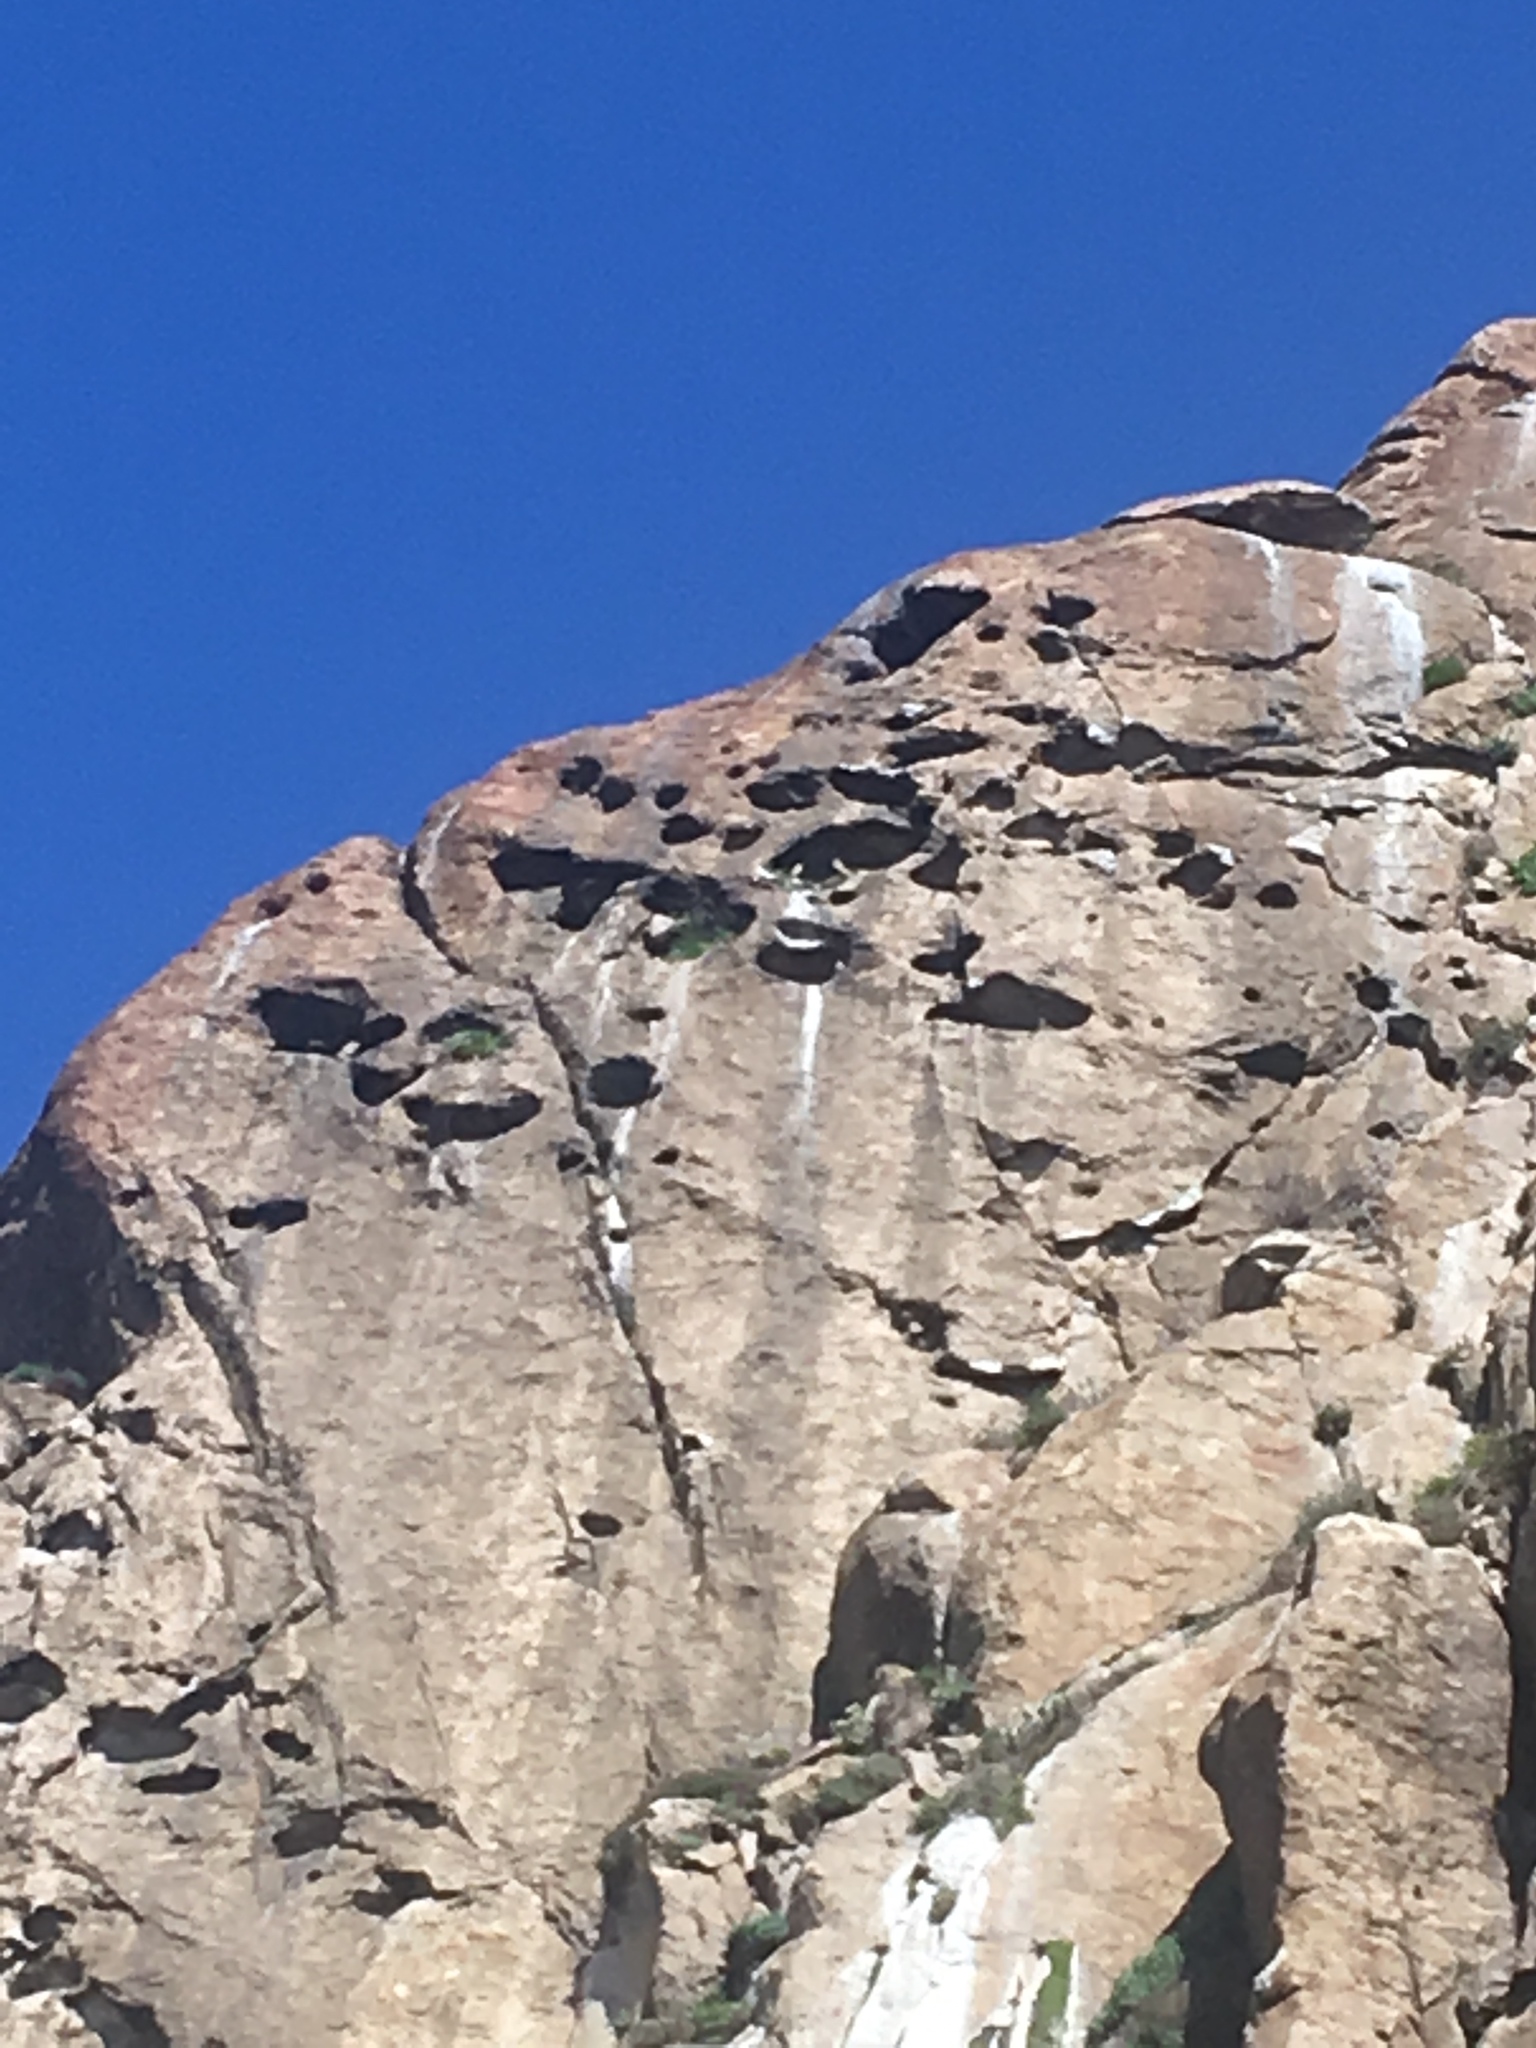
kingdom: Animalia
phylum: Chordata
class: Aves
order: Falconiformes
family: Falconidae
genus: Falco
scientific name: Falco peregrinus
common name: Peregrine falcon
